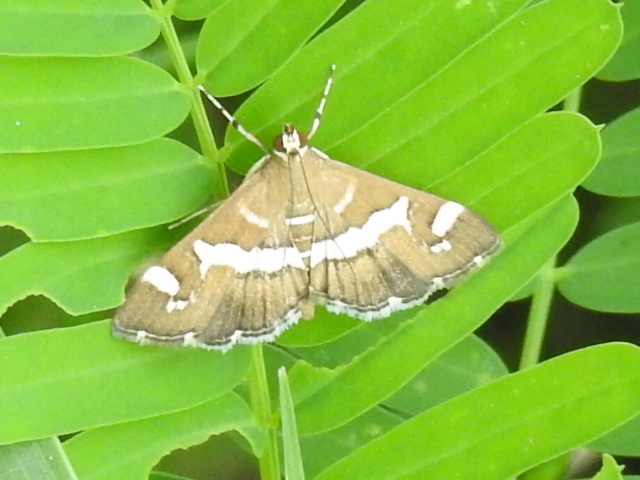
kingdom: Animalia
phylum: Arthropoda
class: Insecta
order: Lepidoptera
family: Crambidae
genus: Spoladea
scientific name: Spoladea recurvalis
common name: Beet webworm moth
